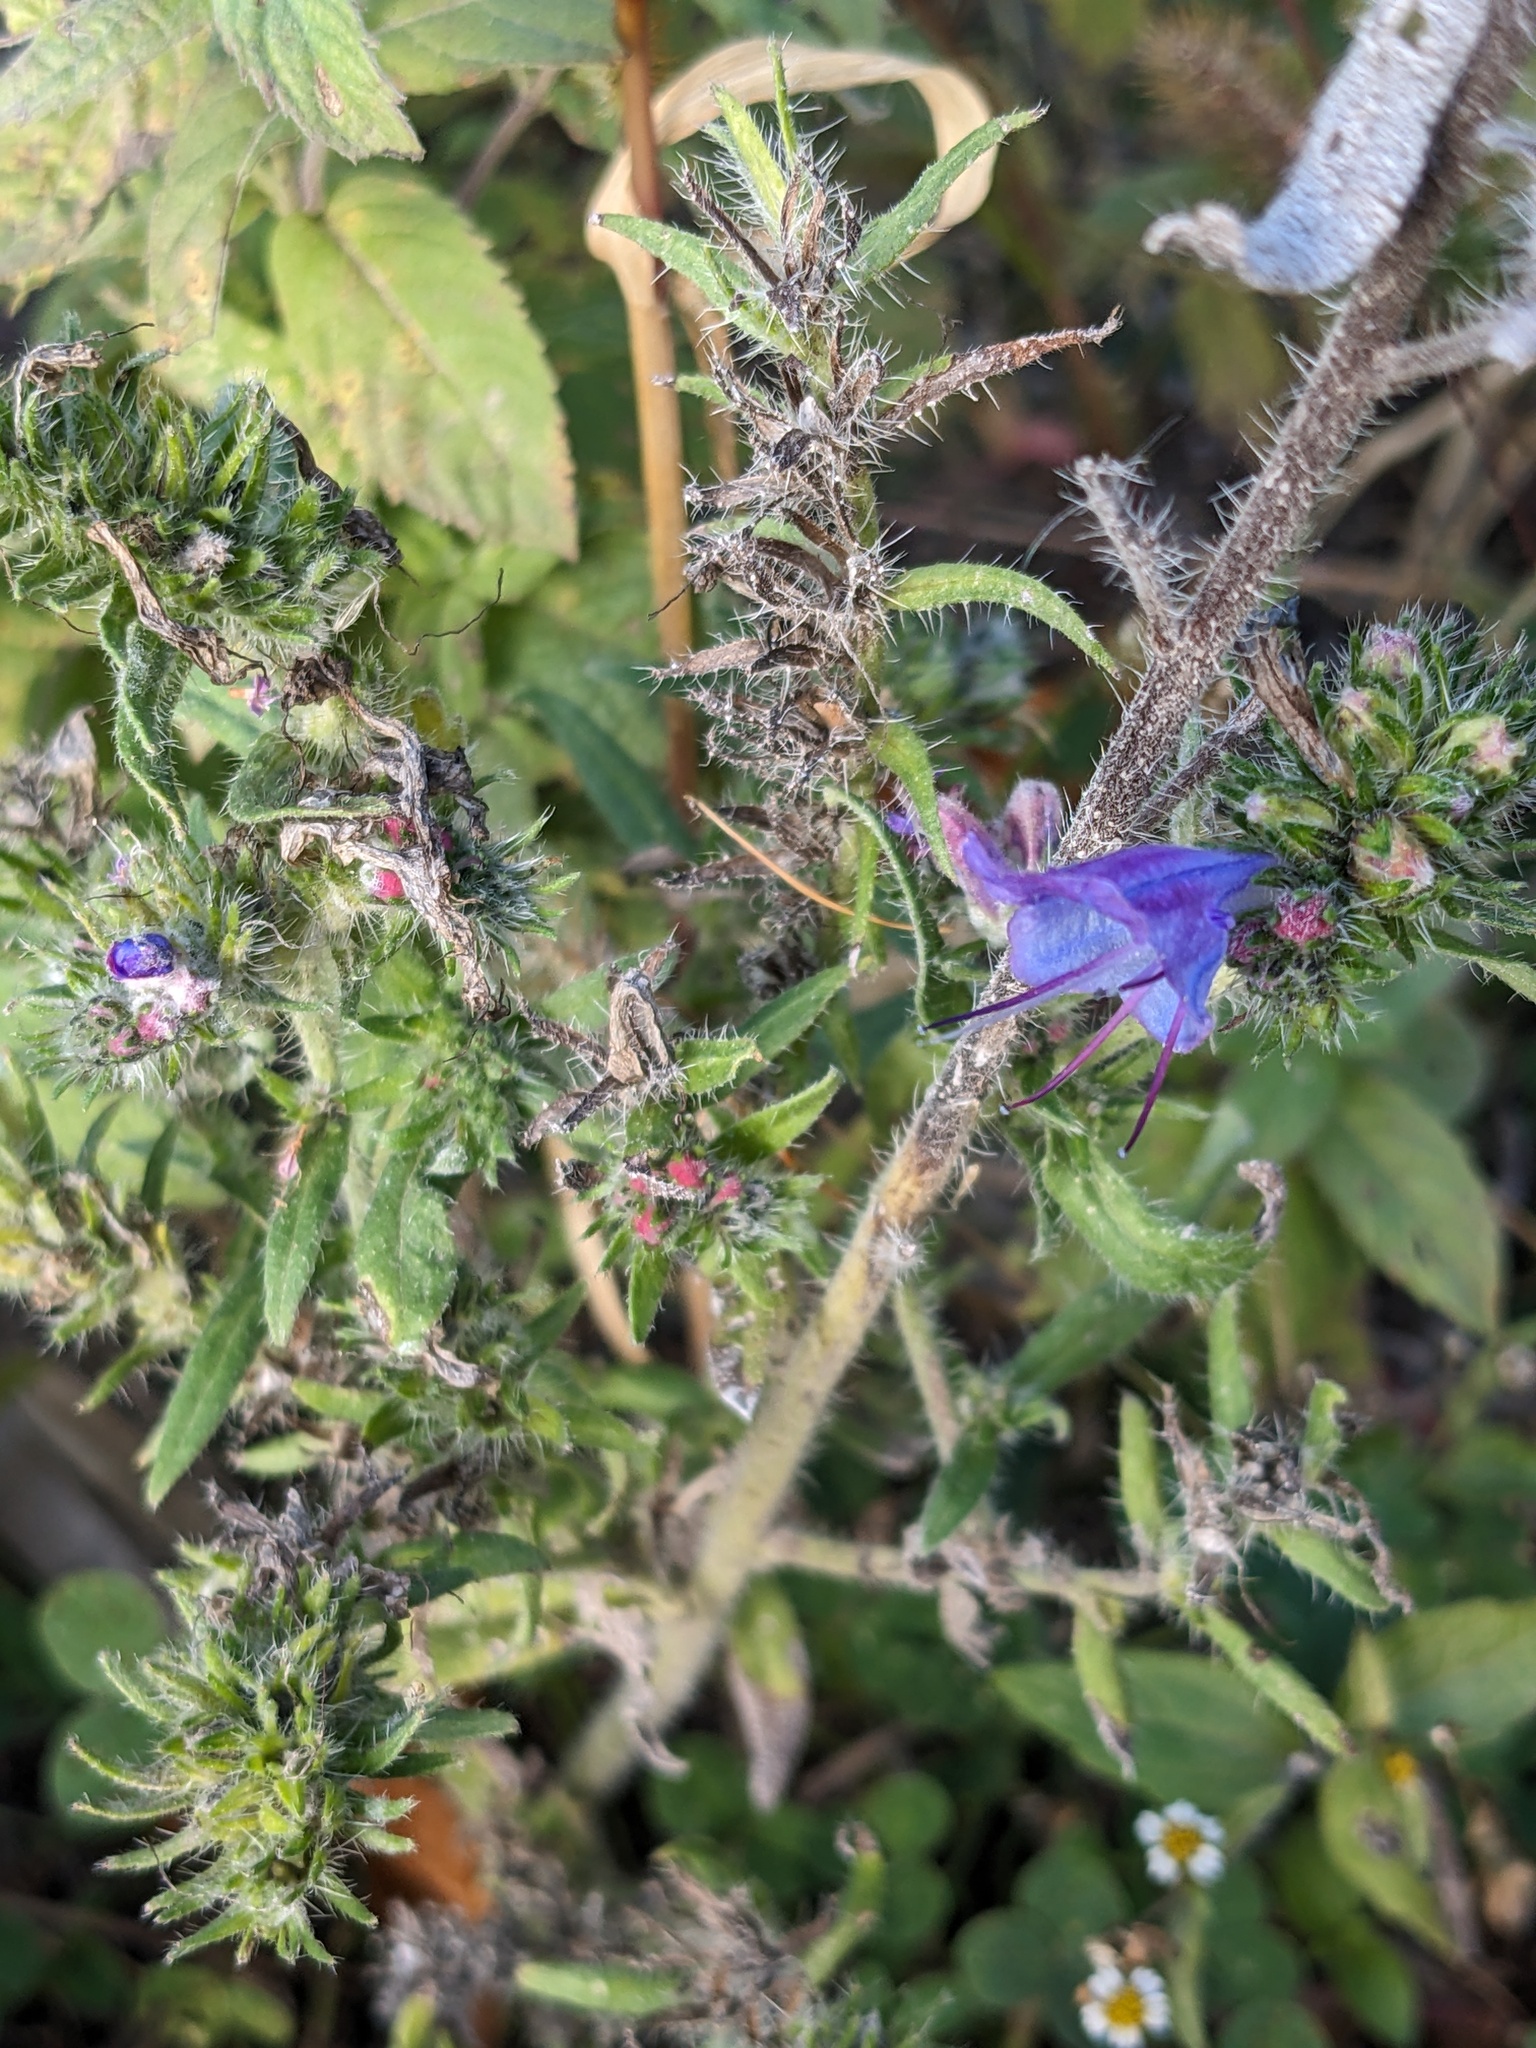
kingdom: Plantae
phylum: Tracheophyta
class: Magnoliopsida
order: Boraginales
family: Boraginaceae
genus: Echium
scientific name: Echium vulgare
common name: Common viper's bugloss
